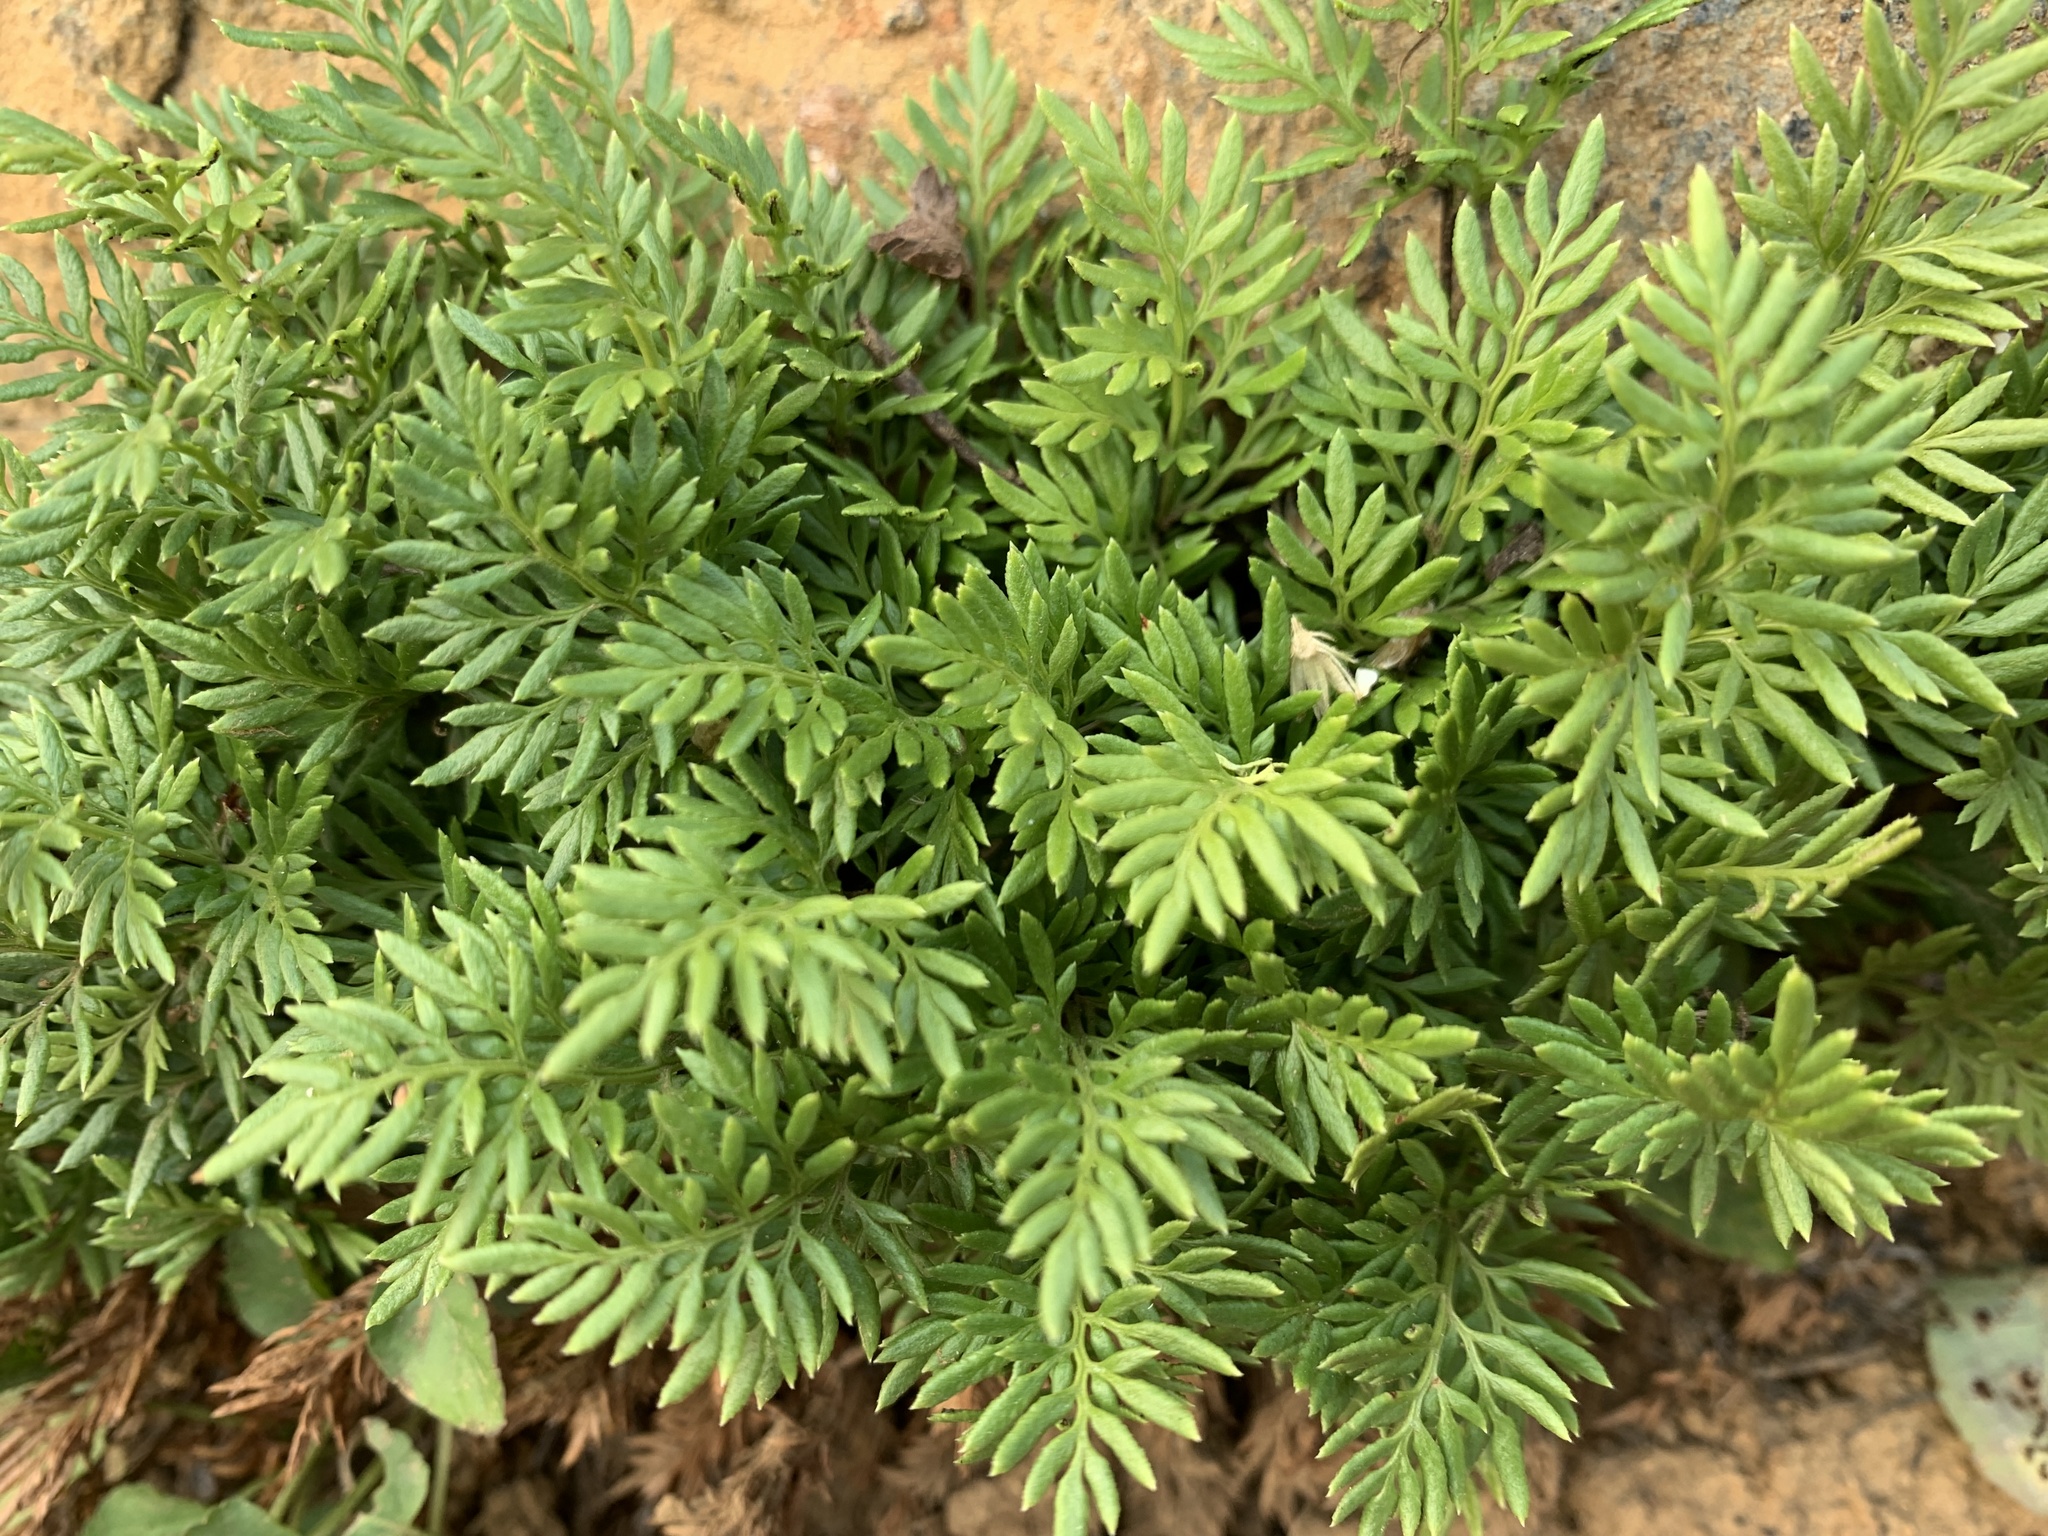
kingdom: Plantae
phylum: Tracheophyta
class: Polypodiopsida
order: Polypodiales
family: Pteridaceae
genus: Aspidotis
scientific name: Aspidotis densa
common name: Indian's dream
